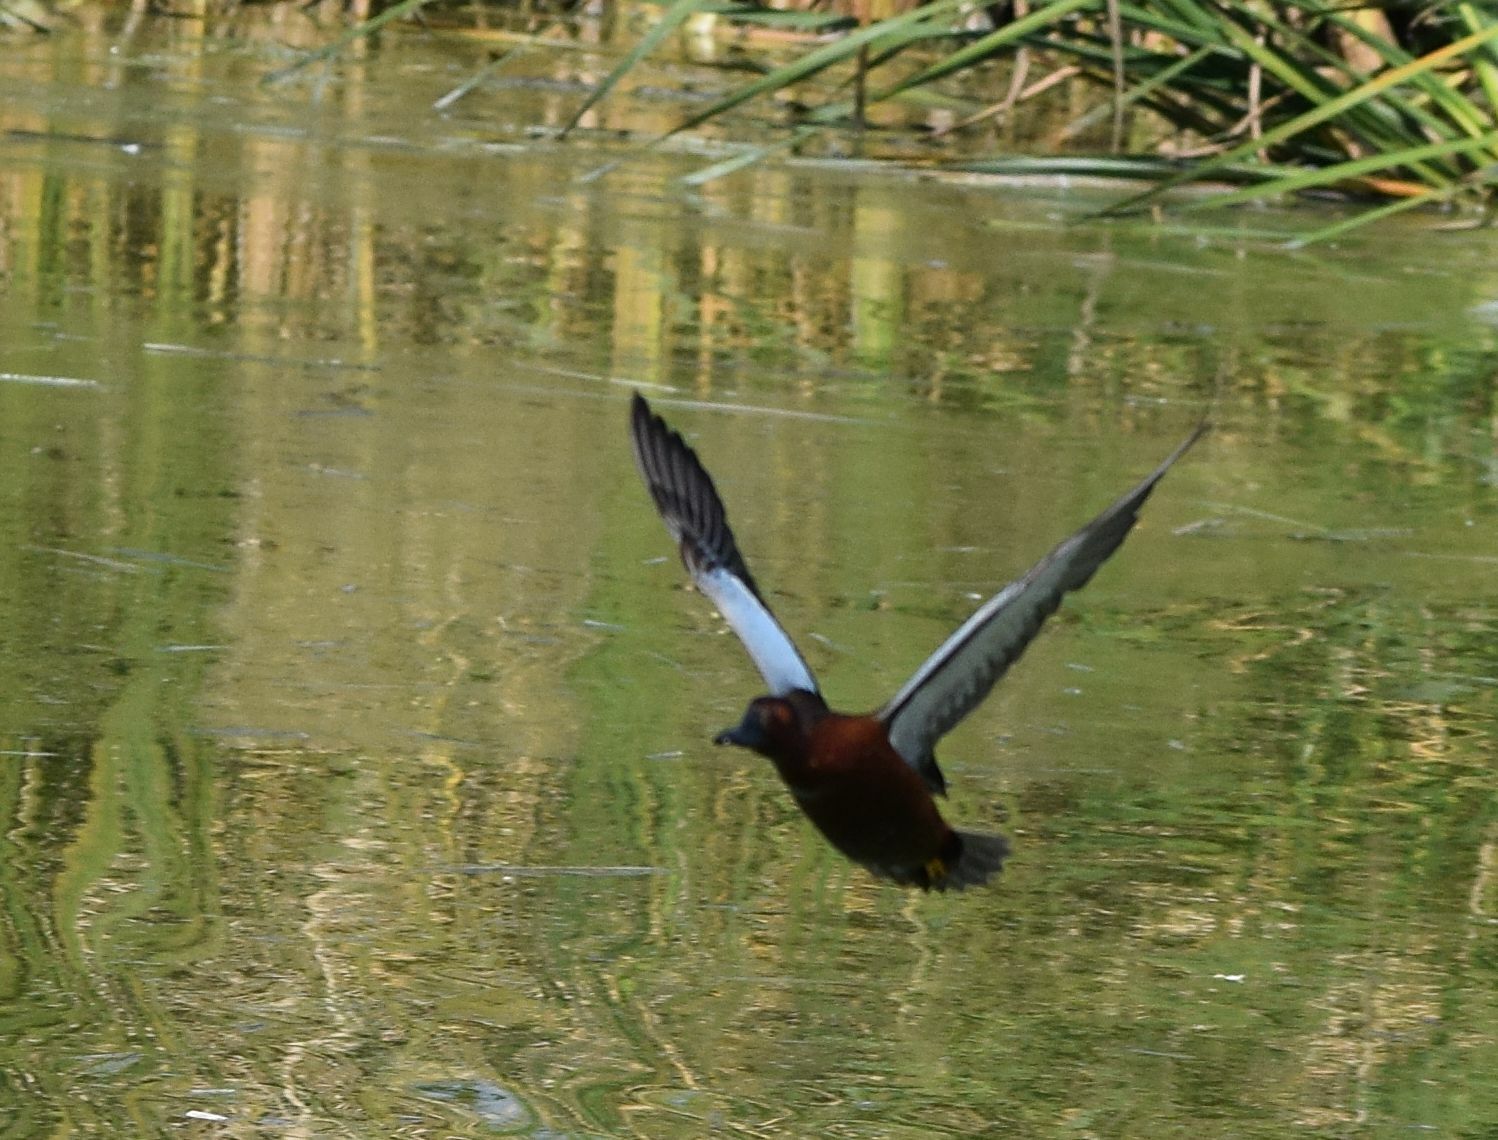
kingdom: Animalia
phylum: Chordata
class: Aves
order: Anseriformes
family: Anatidae
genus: Spatula
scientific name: Spatula cyanoptera
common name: Cinnamon teal
